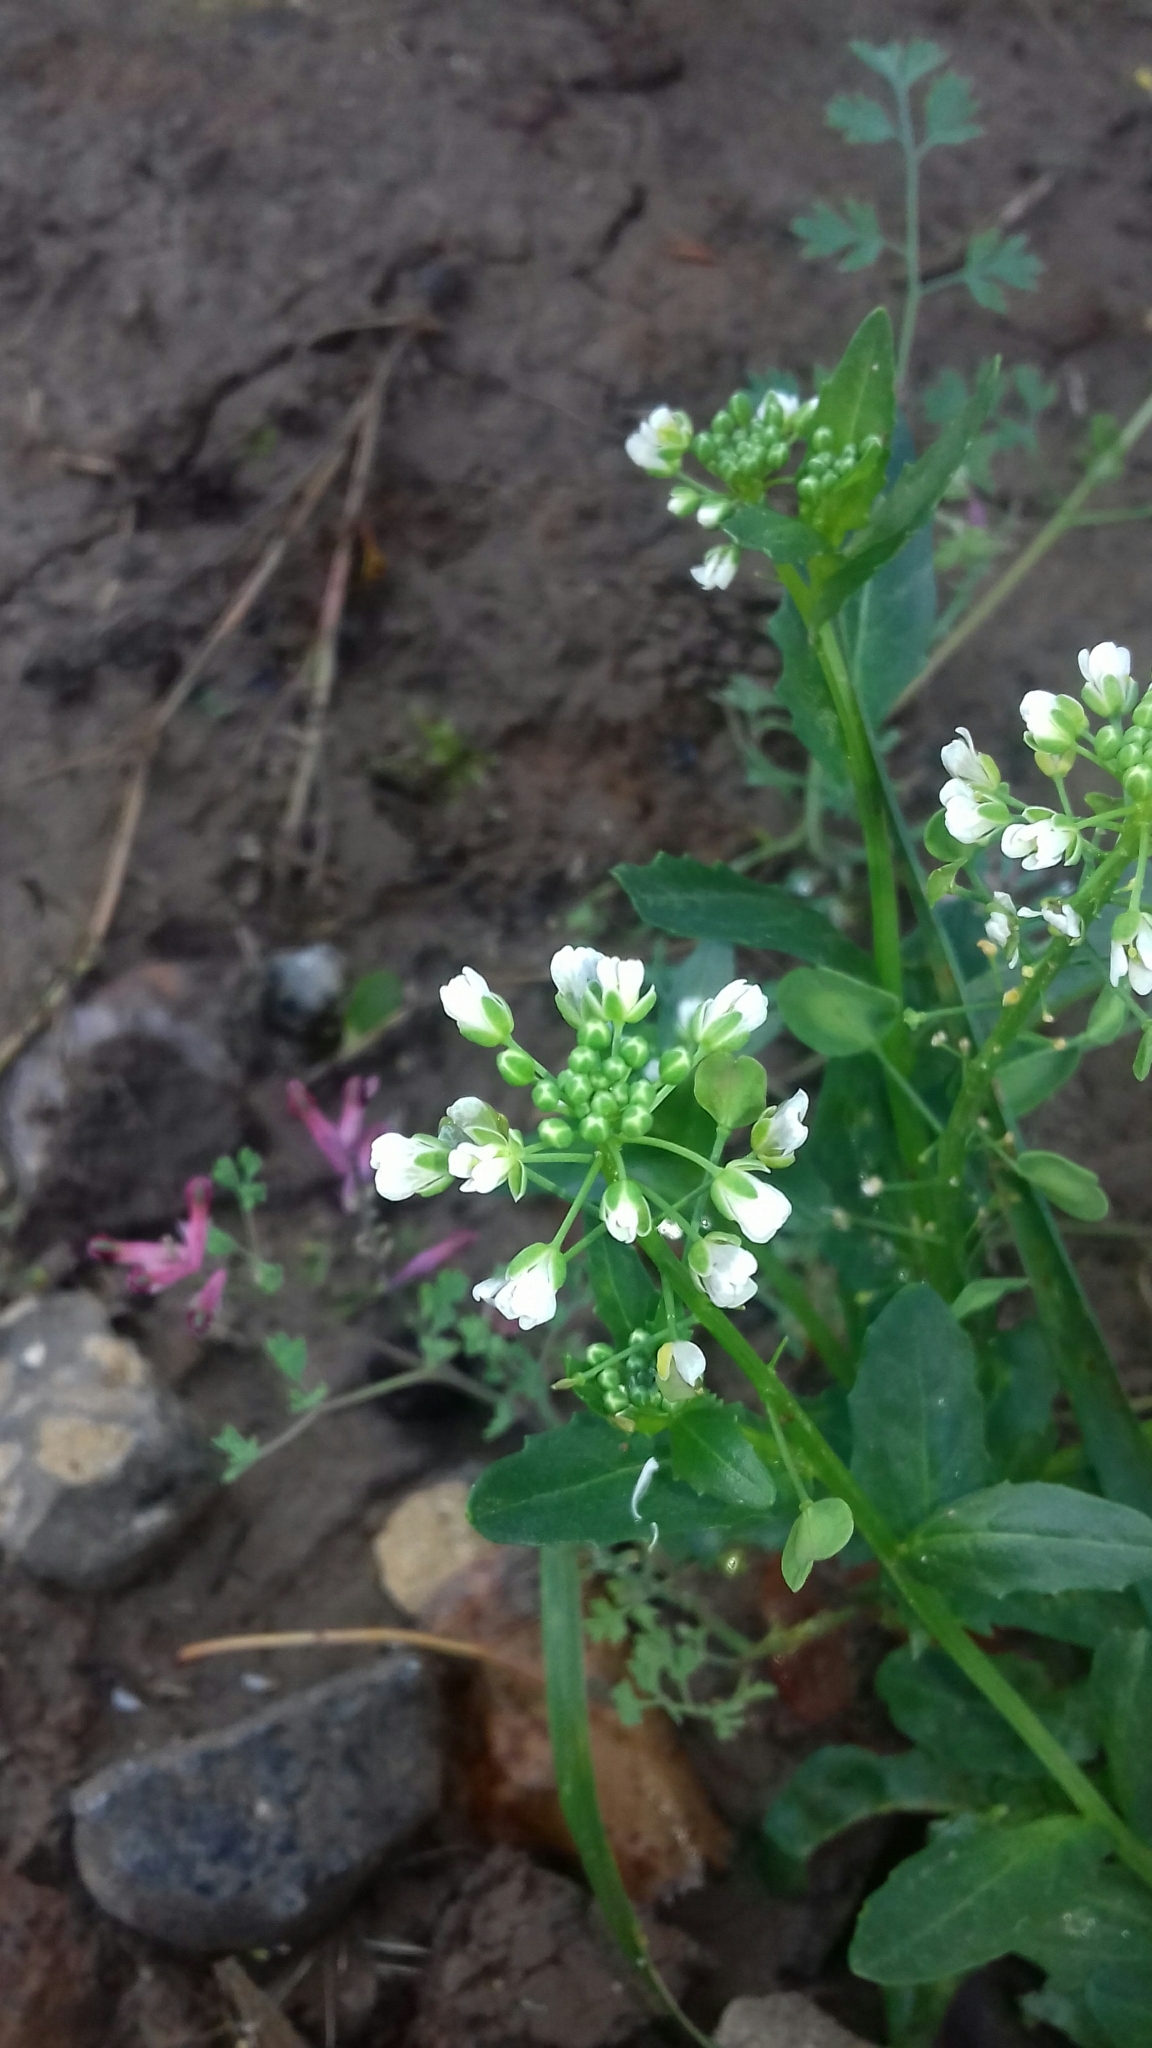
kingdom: Plantae
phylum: Tracheophyta
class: Magnoliopsida
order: Brassicales
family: Brassicaceae
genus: Thlaspi
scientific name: Thlaspi arvense
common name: Field pennycress
